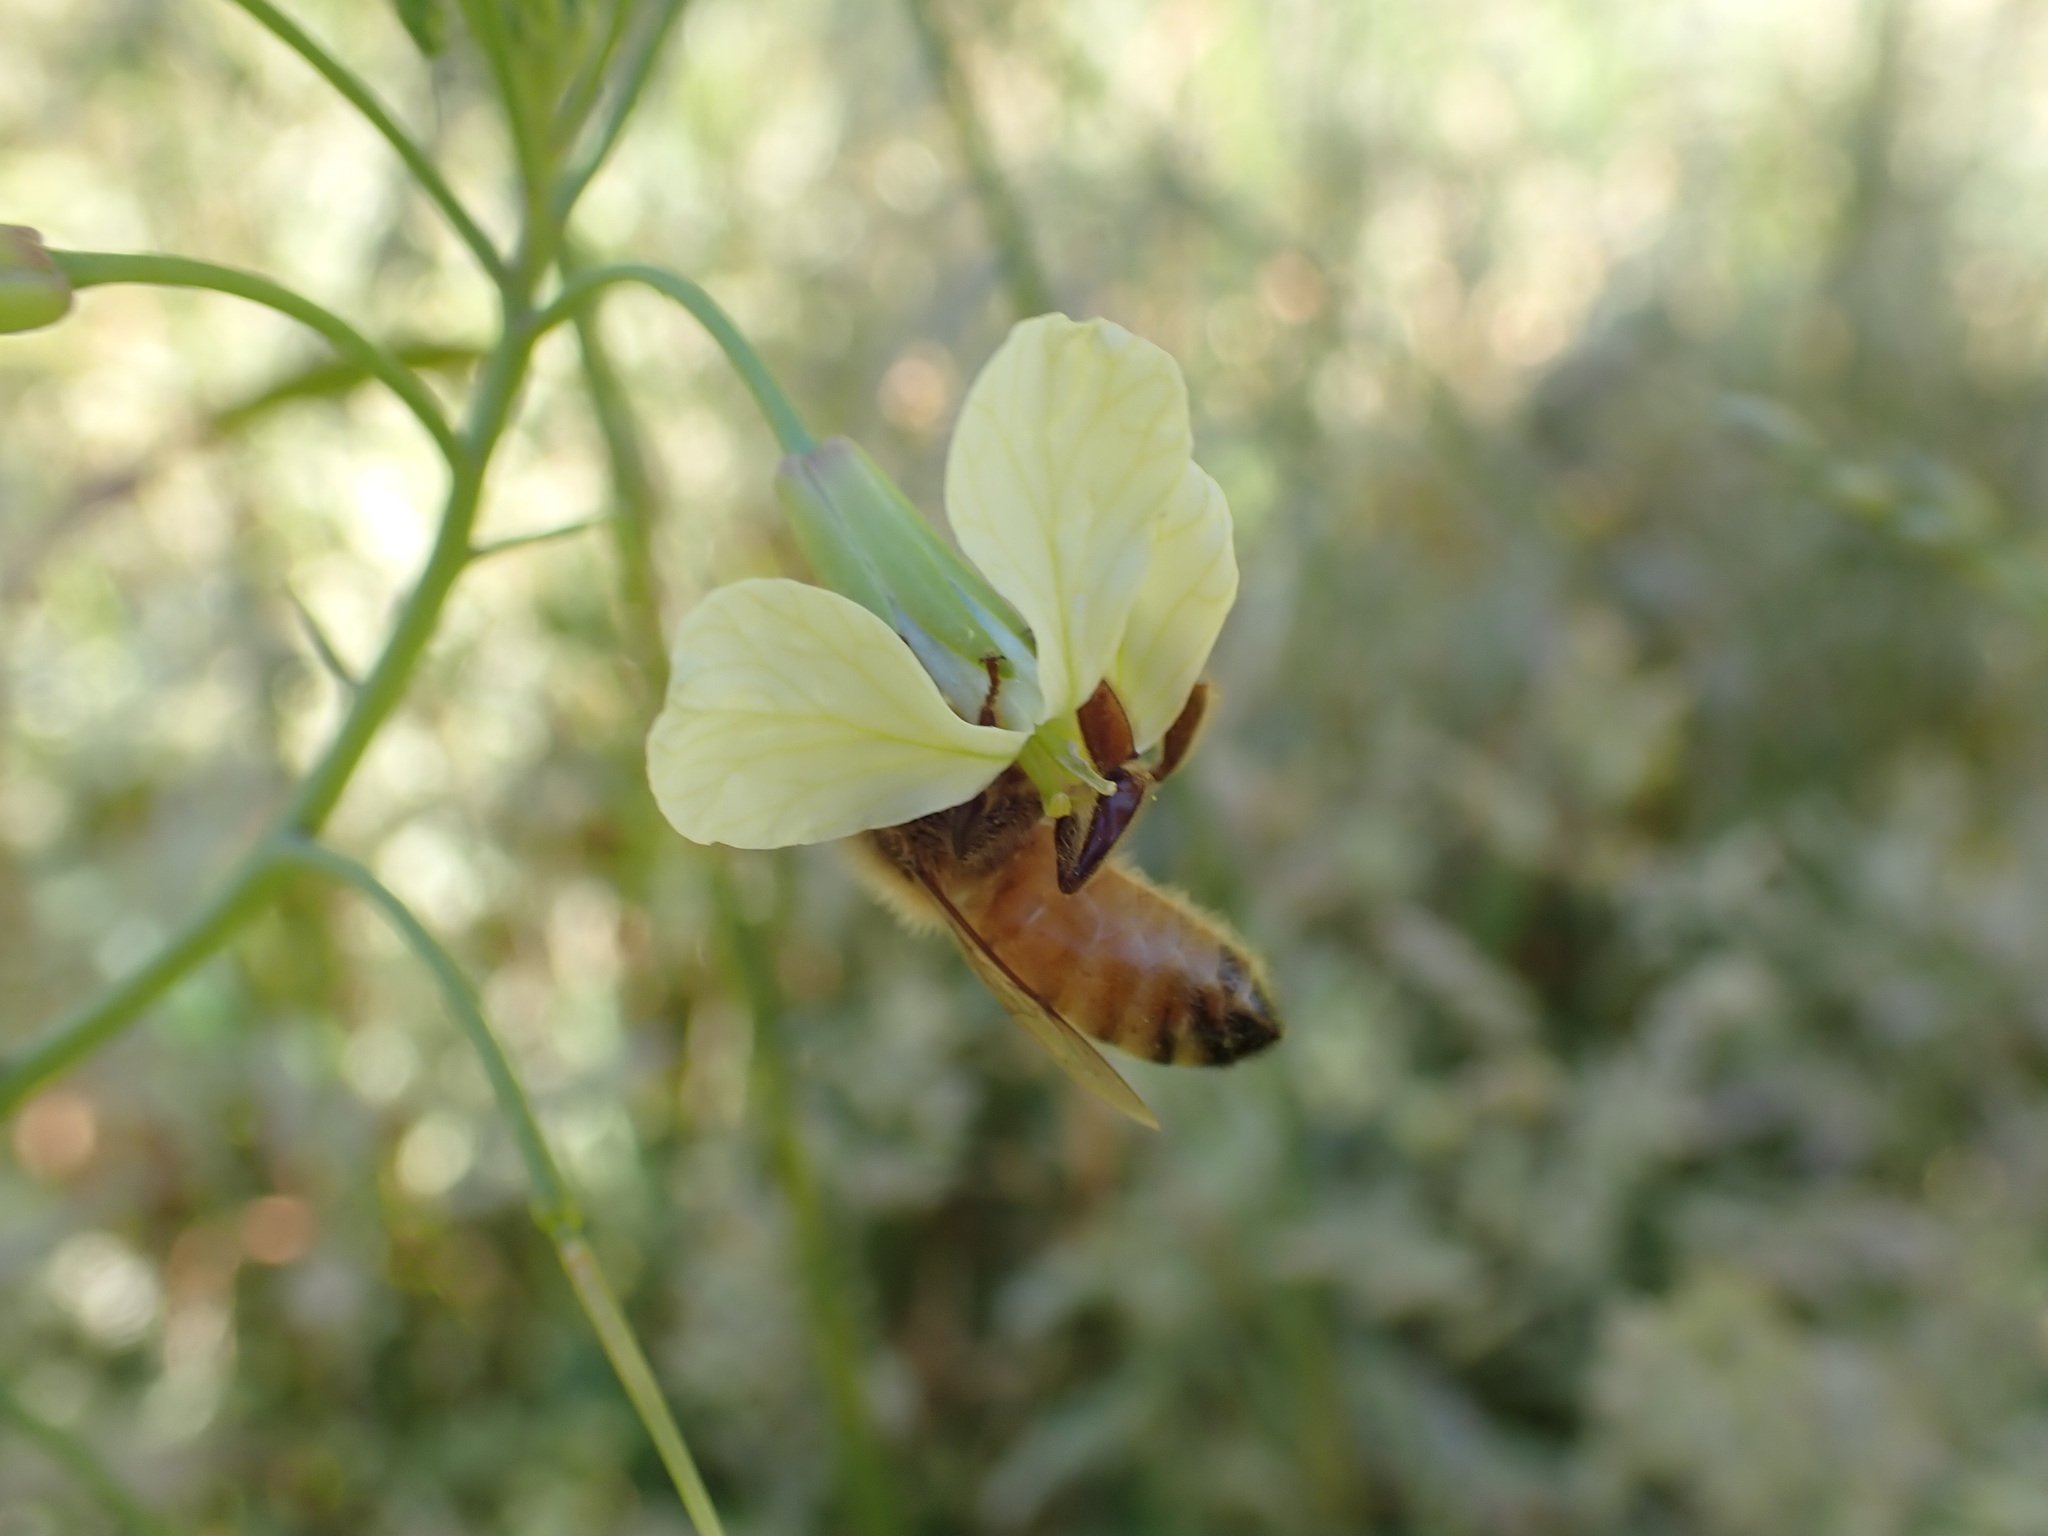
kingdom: Animalia
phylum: Arthropoda
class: Insecta
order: Hymenoptera
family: Apidae
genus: Apis
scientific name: Apis mellifera
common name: Honey bee
